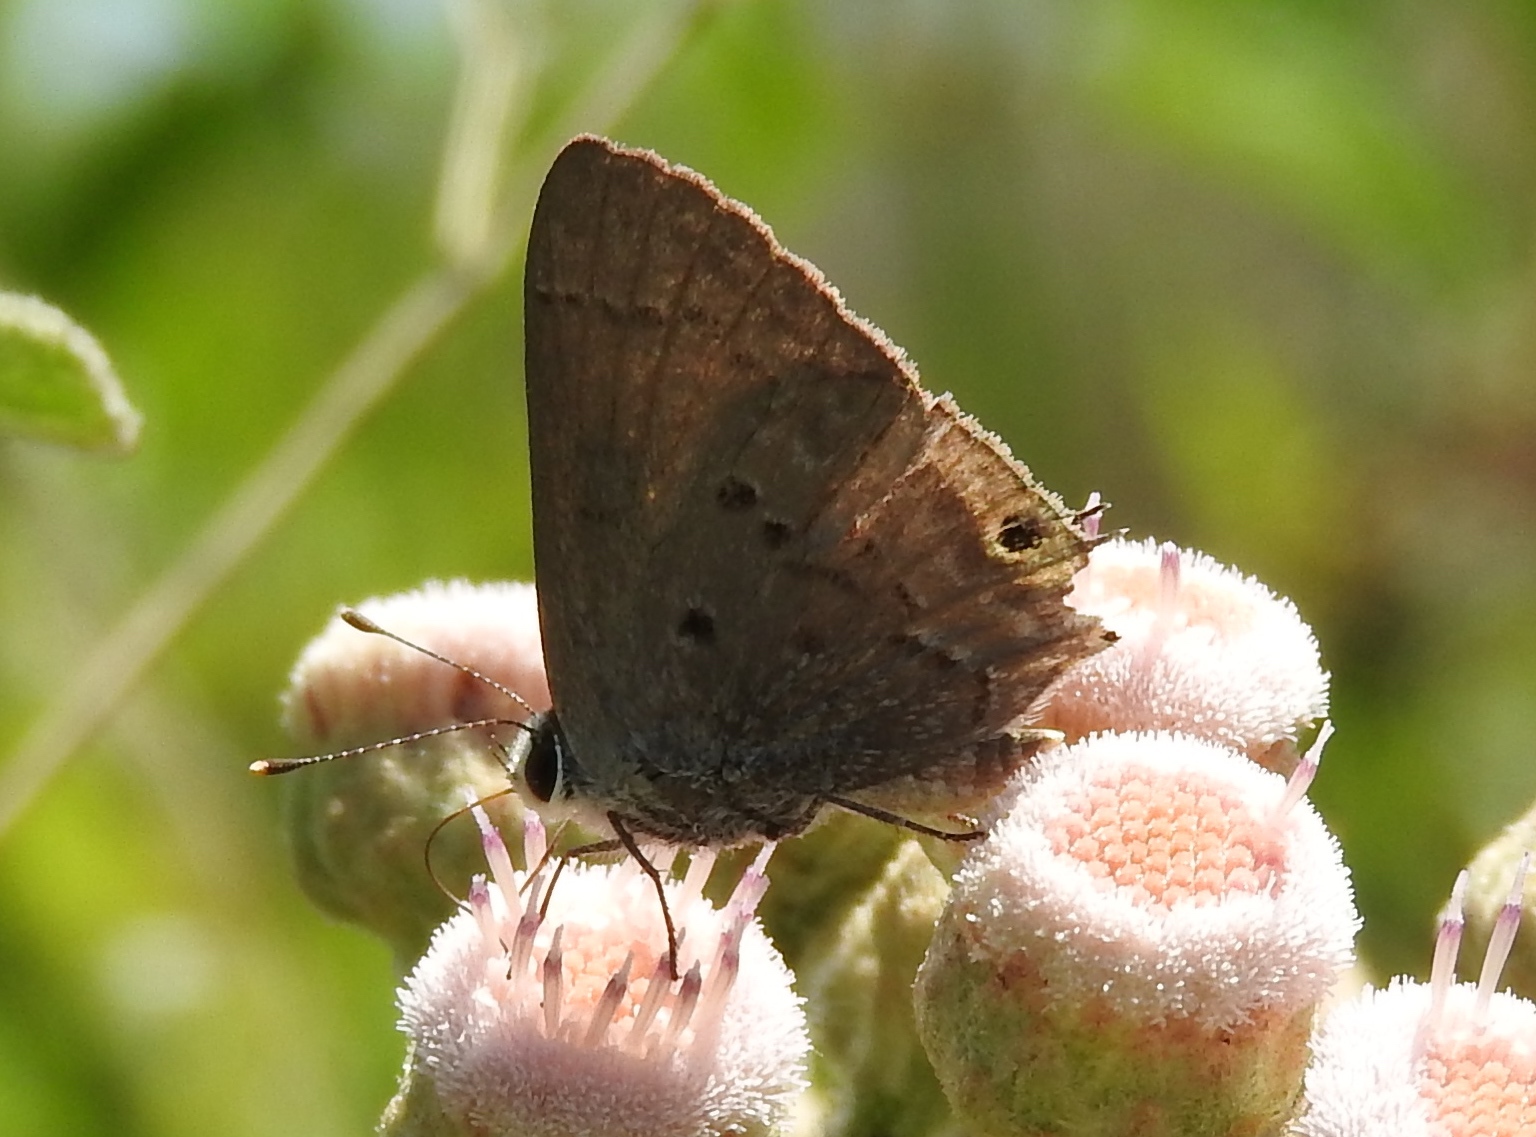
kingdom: Animalia
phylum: Arthropoda
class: Insecta
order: Lepidoptera
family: Lycaenidae
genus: Callicista
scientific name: Callicista columella
